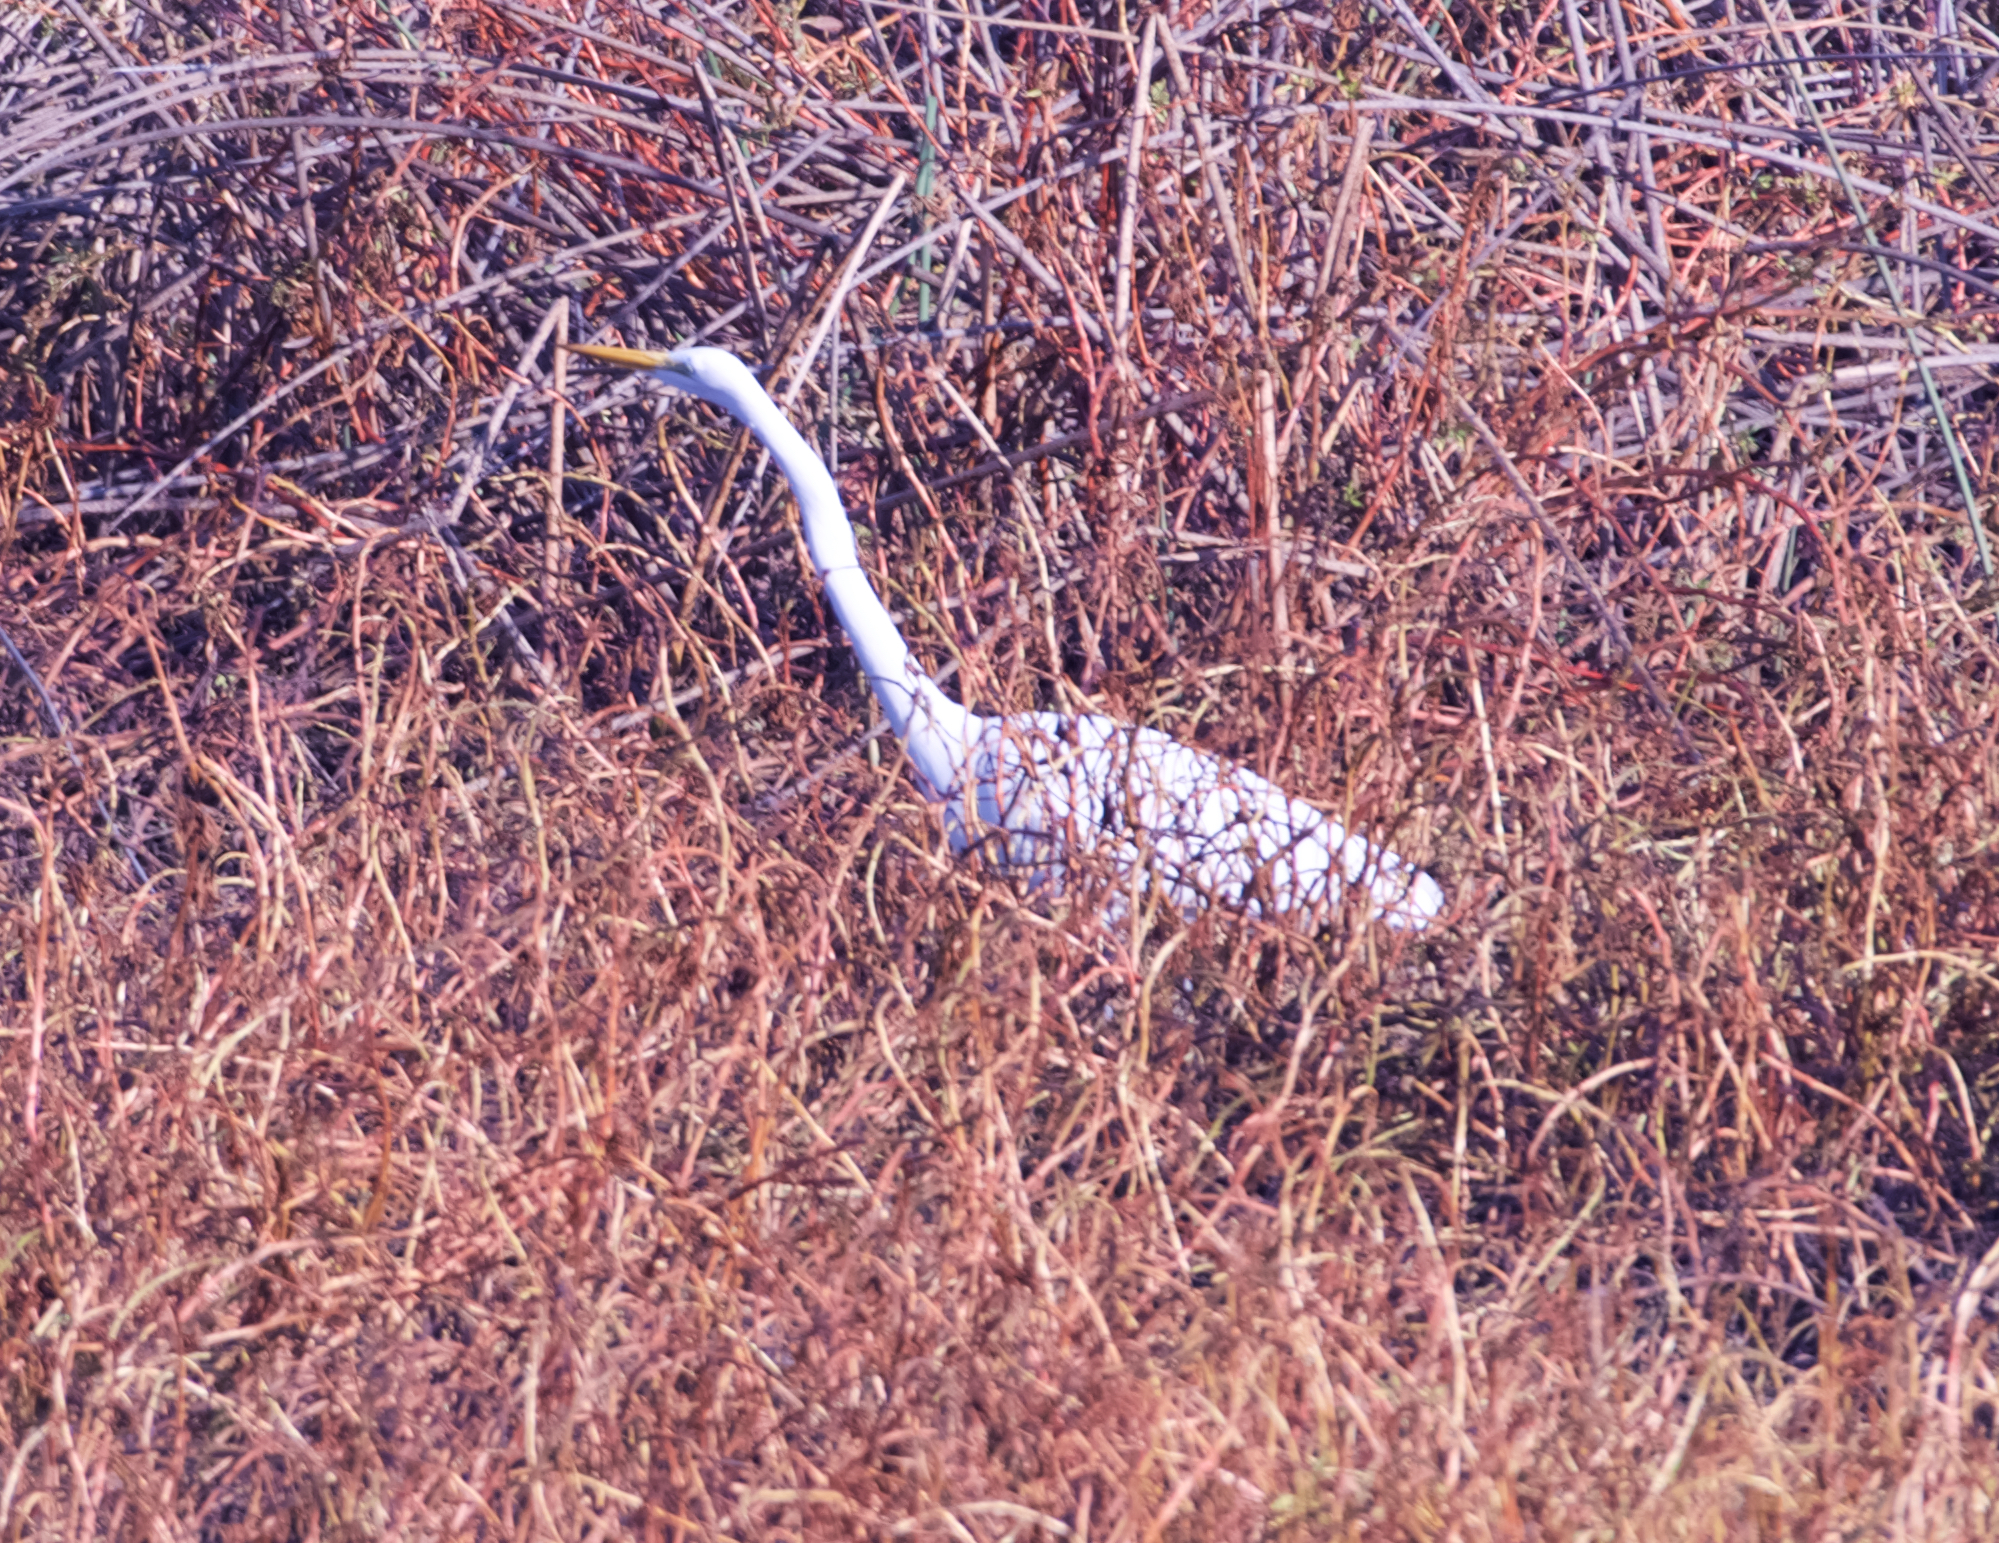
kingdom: Animalia
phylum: Chordata
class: Aves
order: Pelecaniformes
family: Ardeidae
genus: Ardea
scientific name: Ardea alba
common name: Great egret
